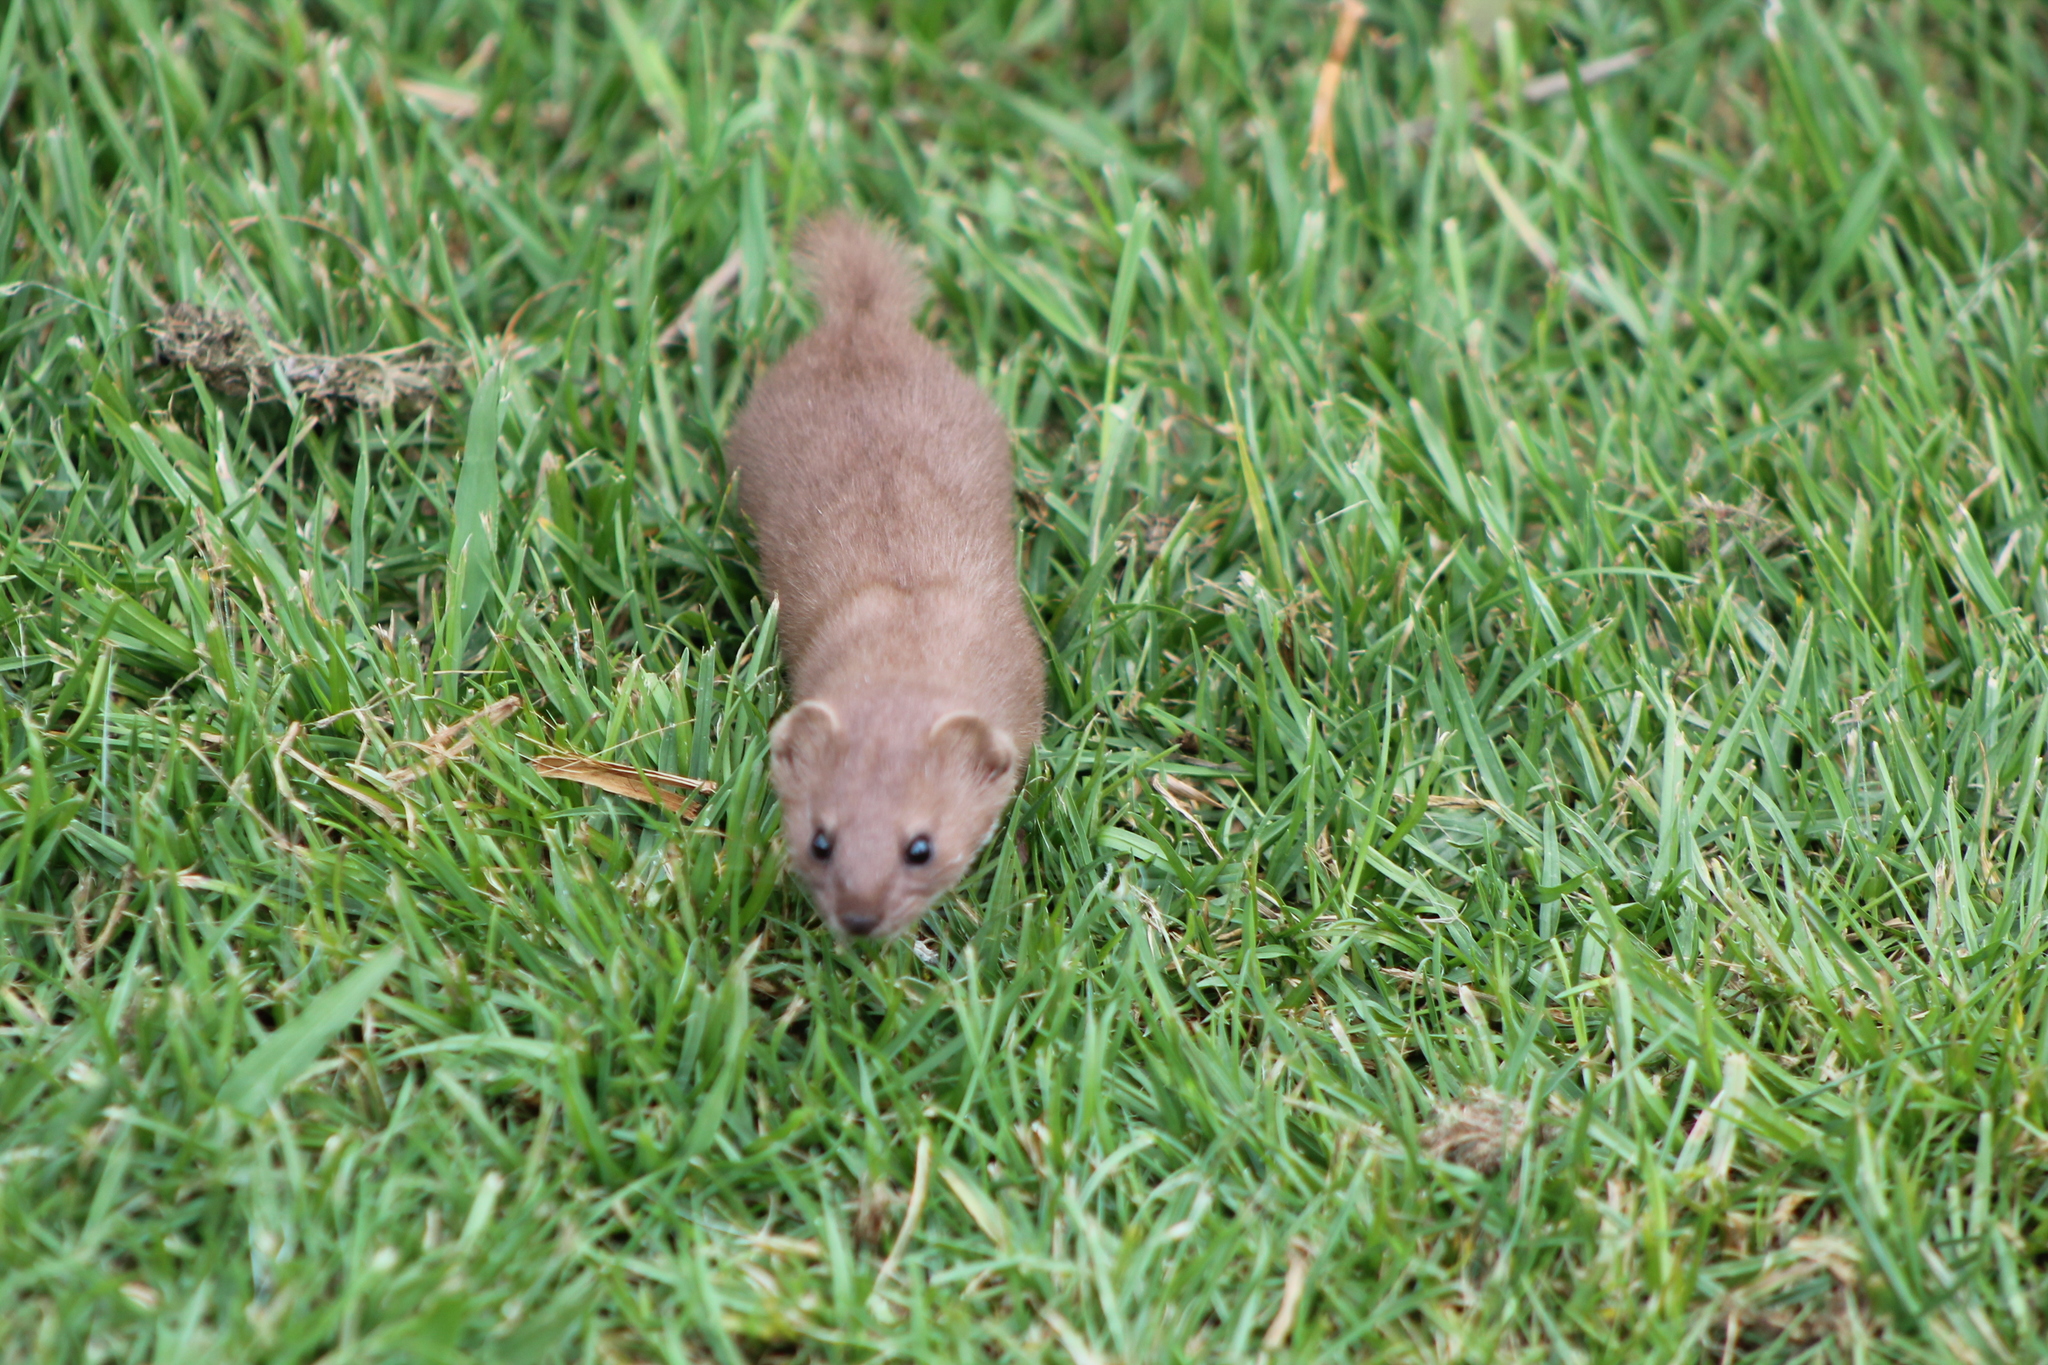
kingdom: Animalia
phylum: Chordata
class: Mammalia
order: Carnivora
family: Mustelidae
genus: Mustela
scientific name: Mustela nivalis
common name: Least weasel
